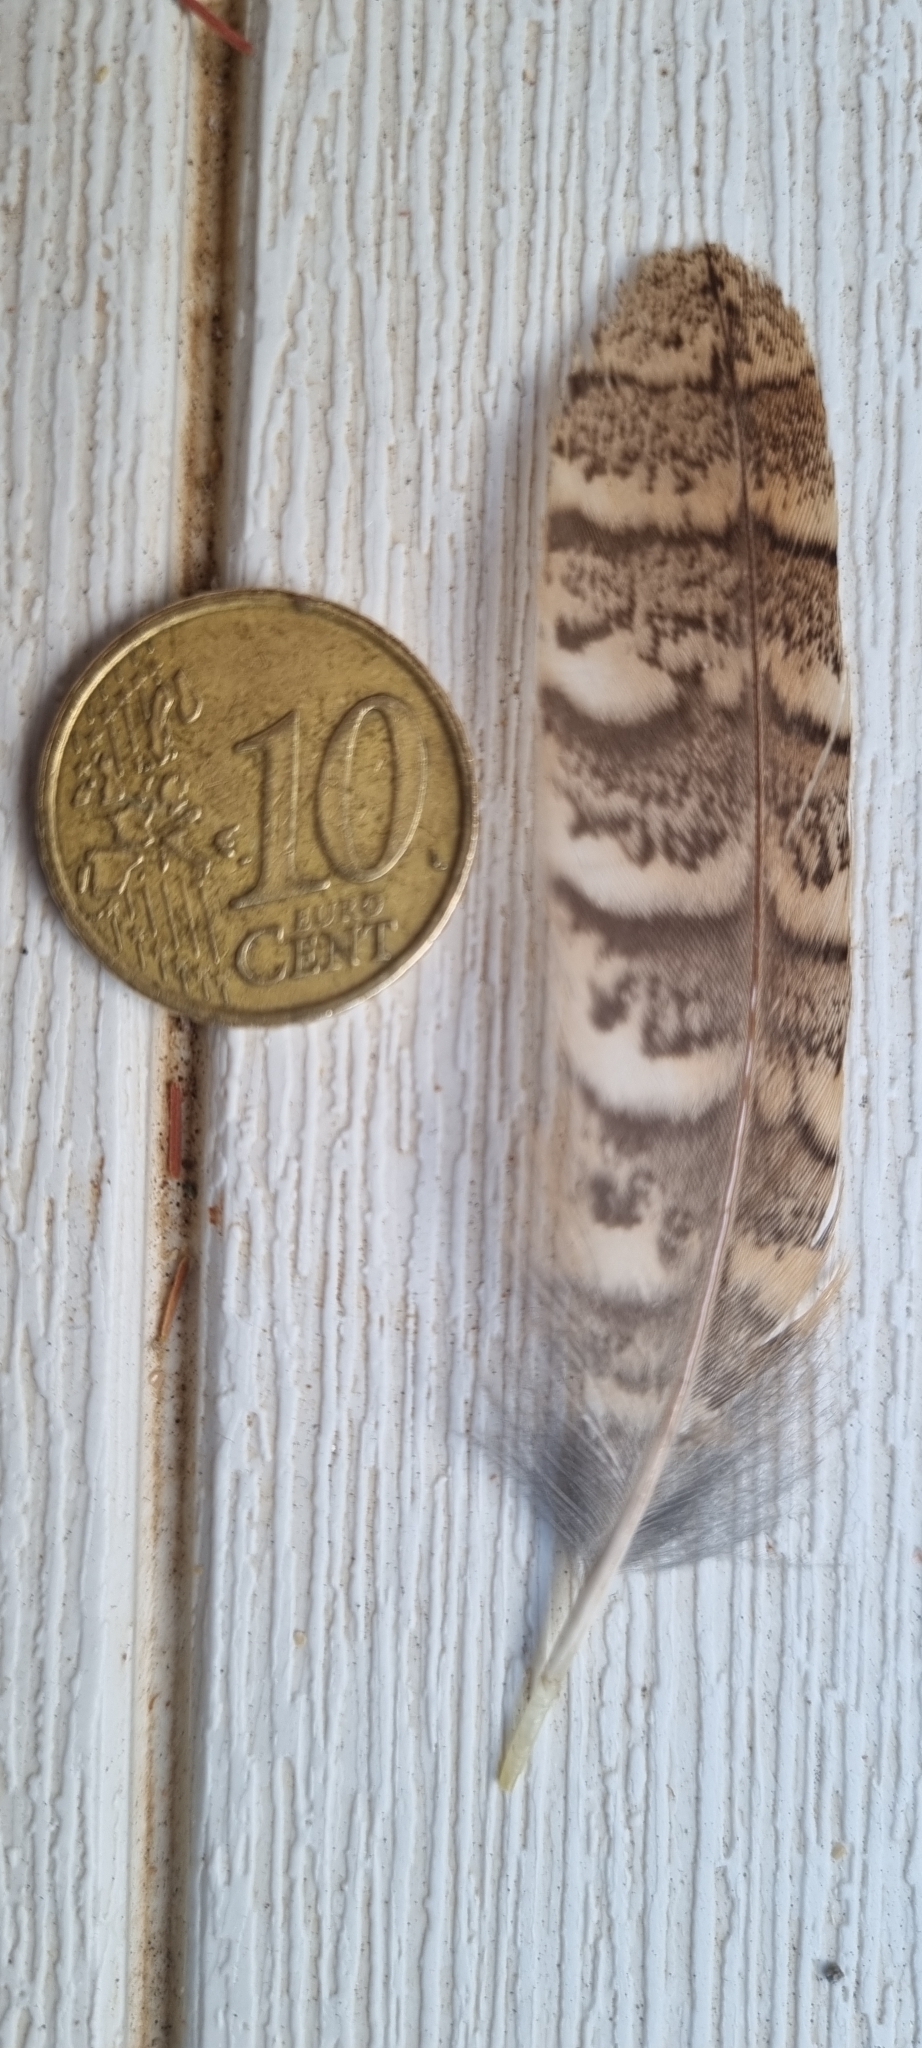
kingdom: Animalia
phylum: Chordata
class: Aves
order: Strigiformes
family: Strigidae
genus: Otus
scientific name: Otus scops
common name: Eurasian scops owl
